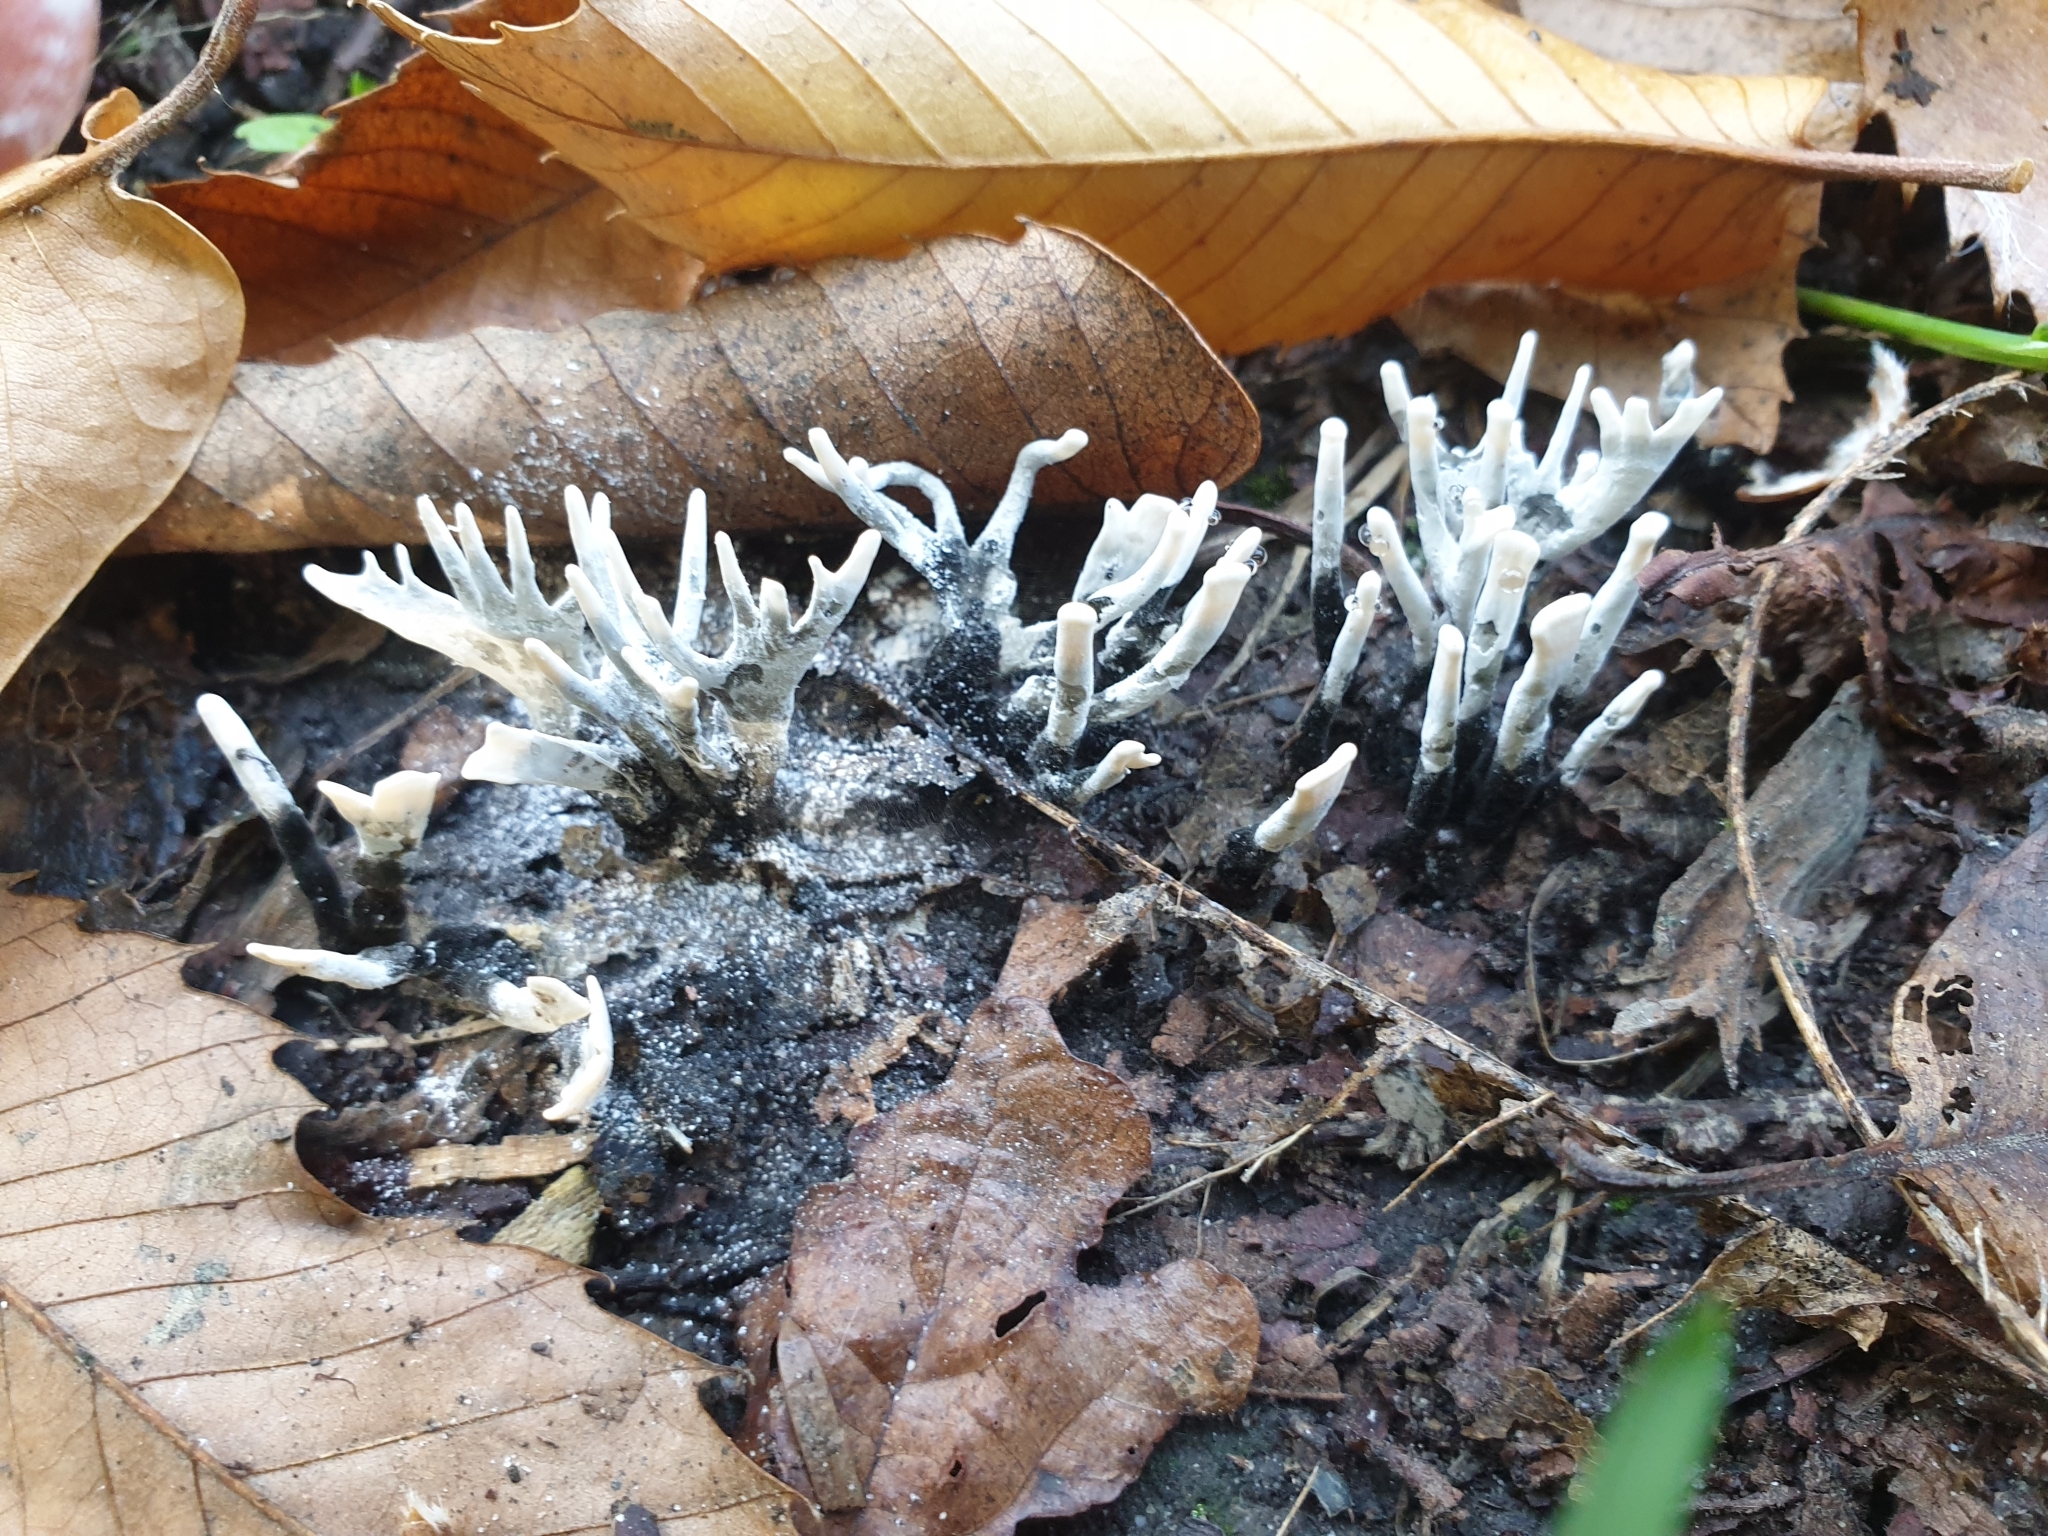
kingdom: Fungi
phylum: Ascomycota
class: Sordariomycetes
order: Xylariales
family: Xylariaceae
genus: Xylaria
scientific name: Xylaria hypoxylon
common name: Candle-snuff fungus
